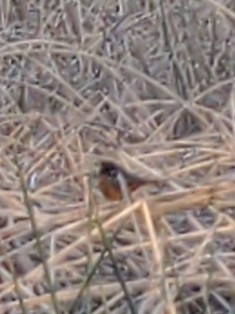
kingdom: Animalia
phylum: Chordata
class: Aves
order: Passeriformes
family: Passerellidae
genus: Pipilo
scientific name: Pipilo maculatus
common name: Spotted towhee
